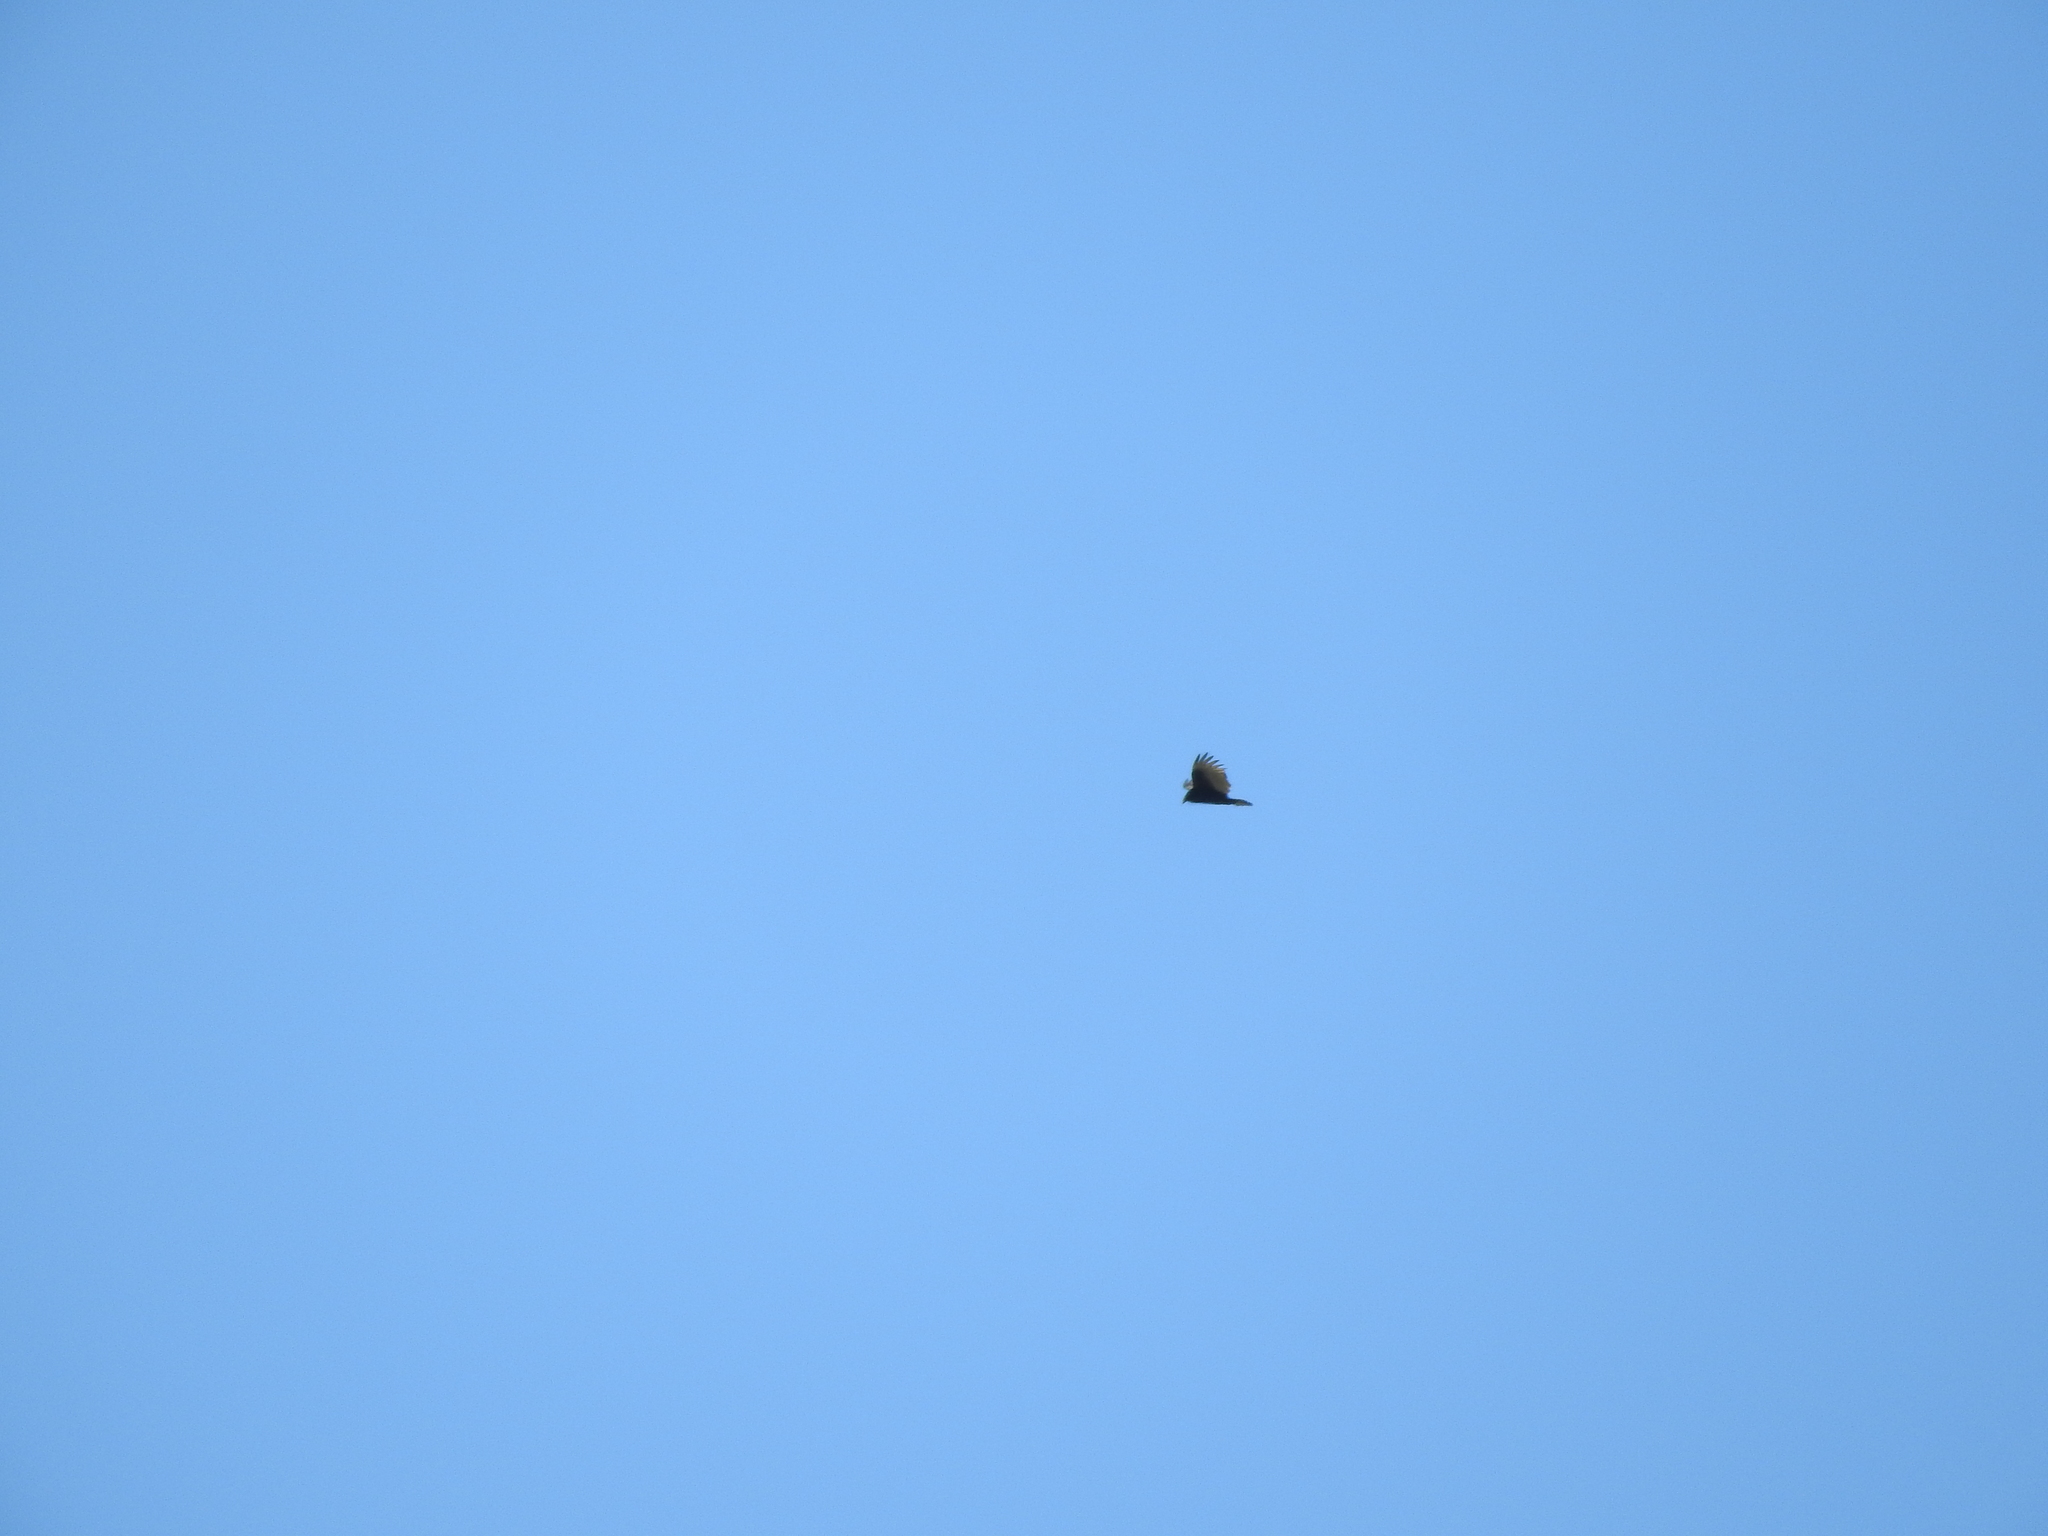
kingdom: Animalia
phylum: Chordata
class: Aves
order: Accipitriformes
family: Cathartidae
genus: Cathartes
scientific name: Cathartes aura
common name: Turkey vulture
